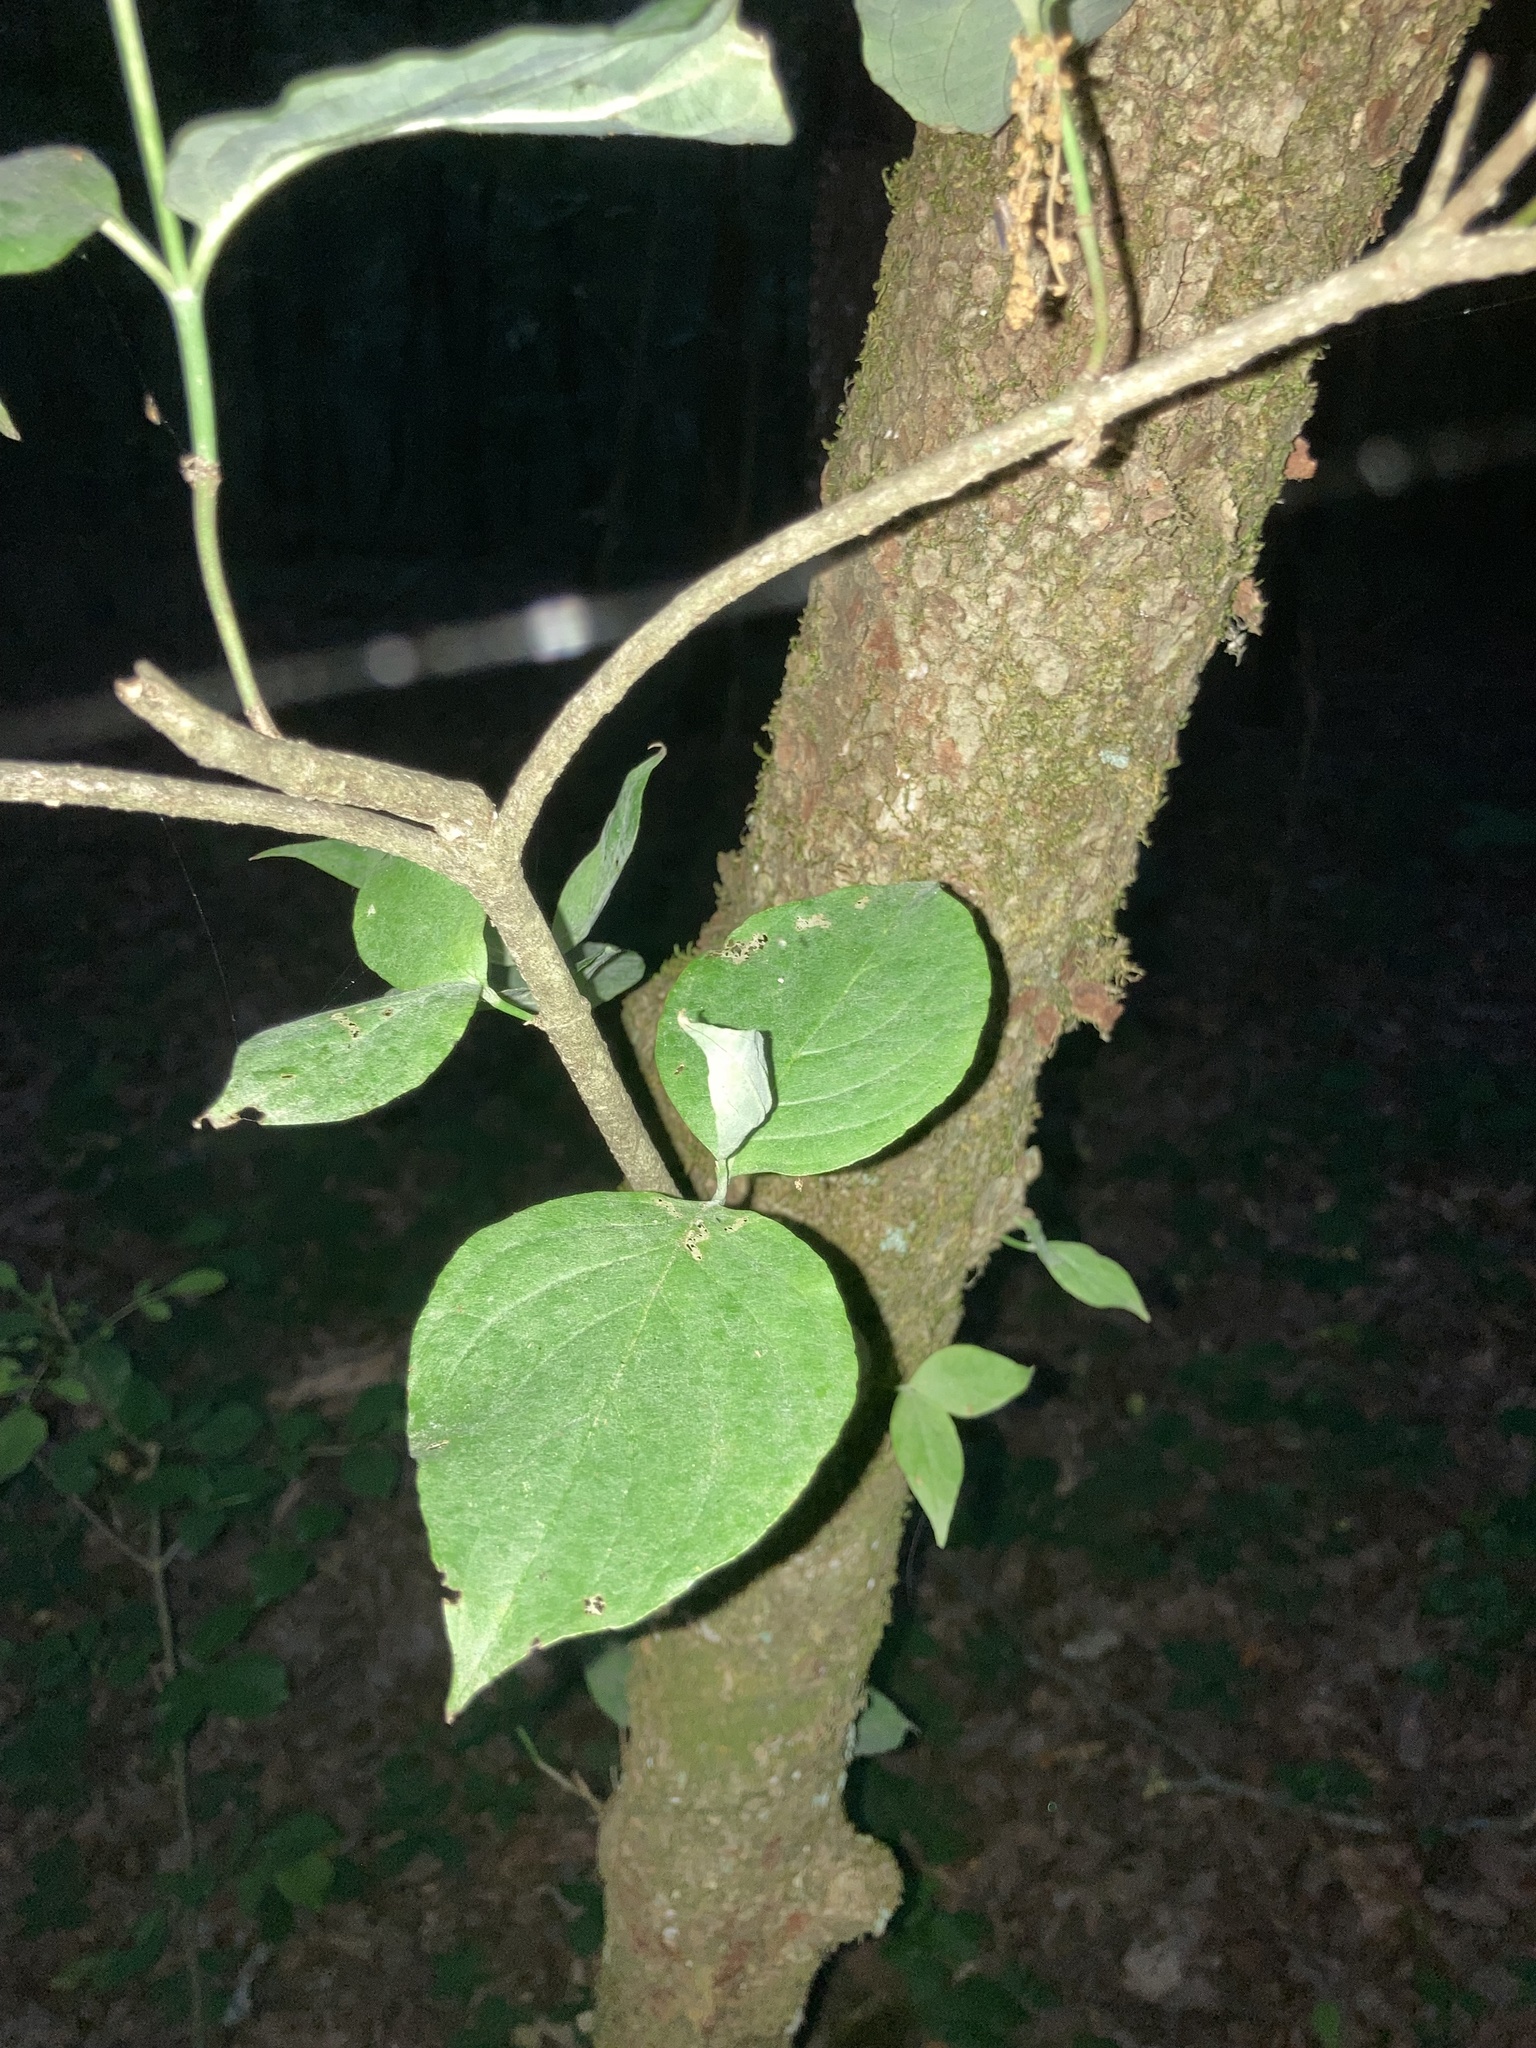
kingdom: Plantae
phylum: Tracheophyta
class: Magnoliopsida
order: Cornales
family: Cornaceae
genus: Cornus
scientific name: Cornus florida
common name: Flowering dogwood
